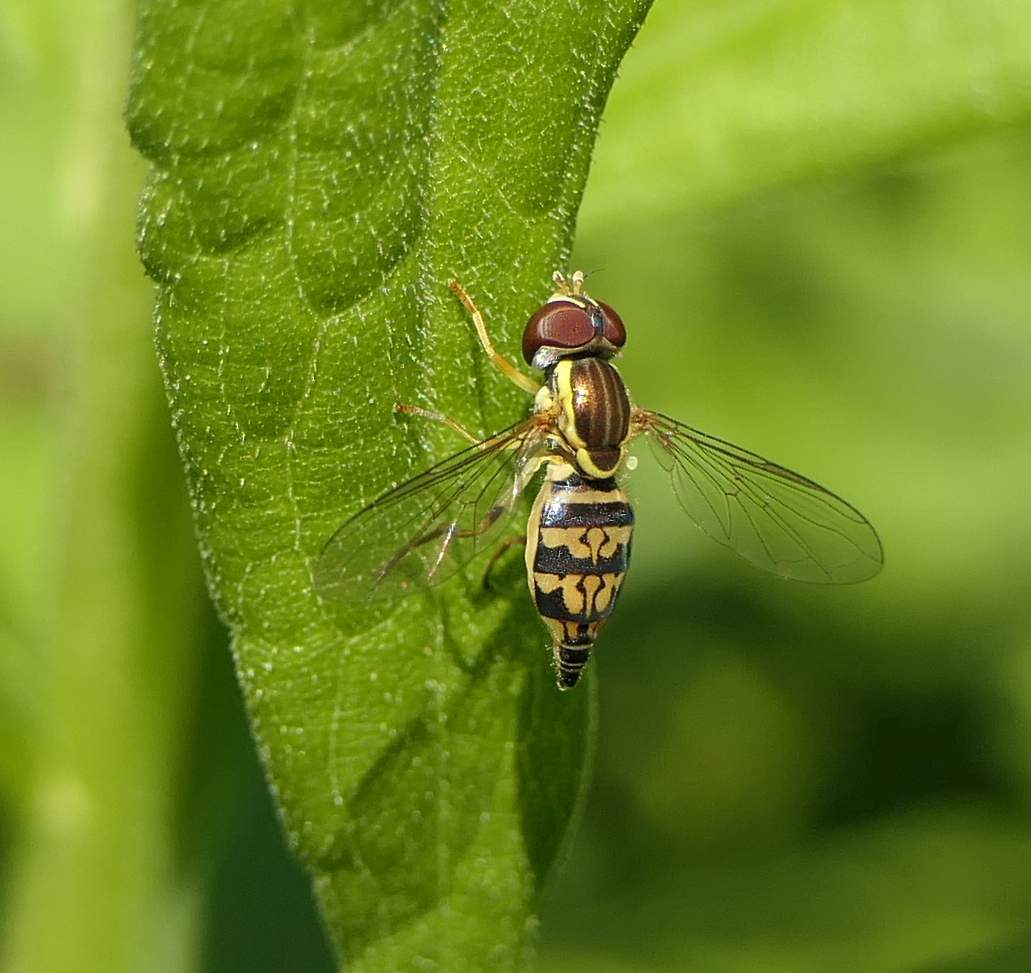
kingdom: Animalia
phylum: Arthropoda
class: Insecta
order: Diptera
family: Syrphidae
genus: Toxomerus
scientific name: Toxomerus geminatus
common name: Eastern calligrapher
